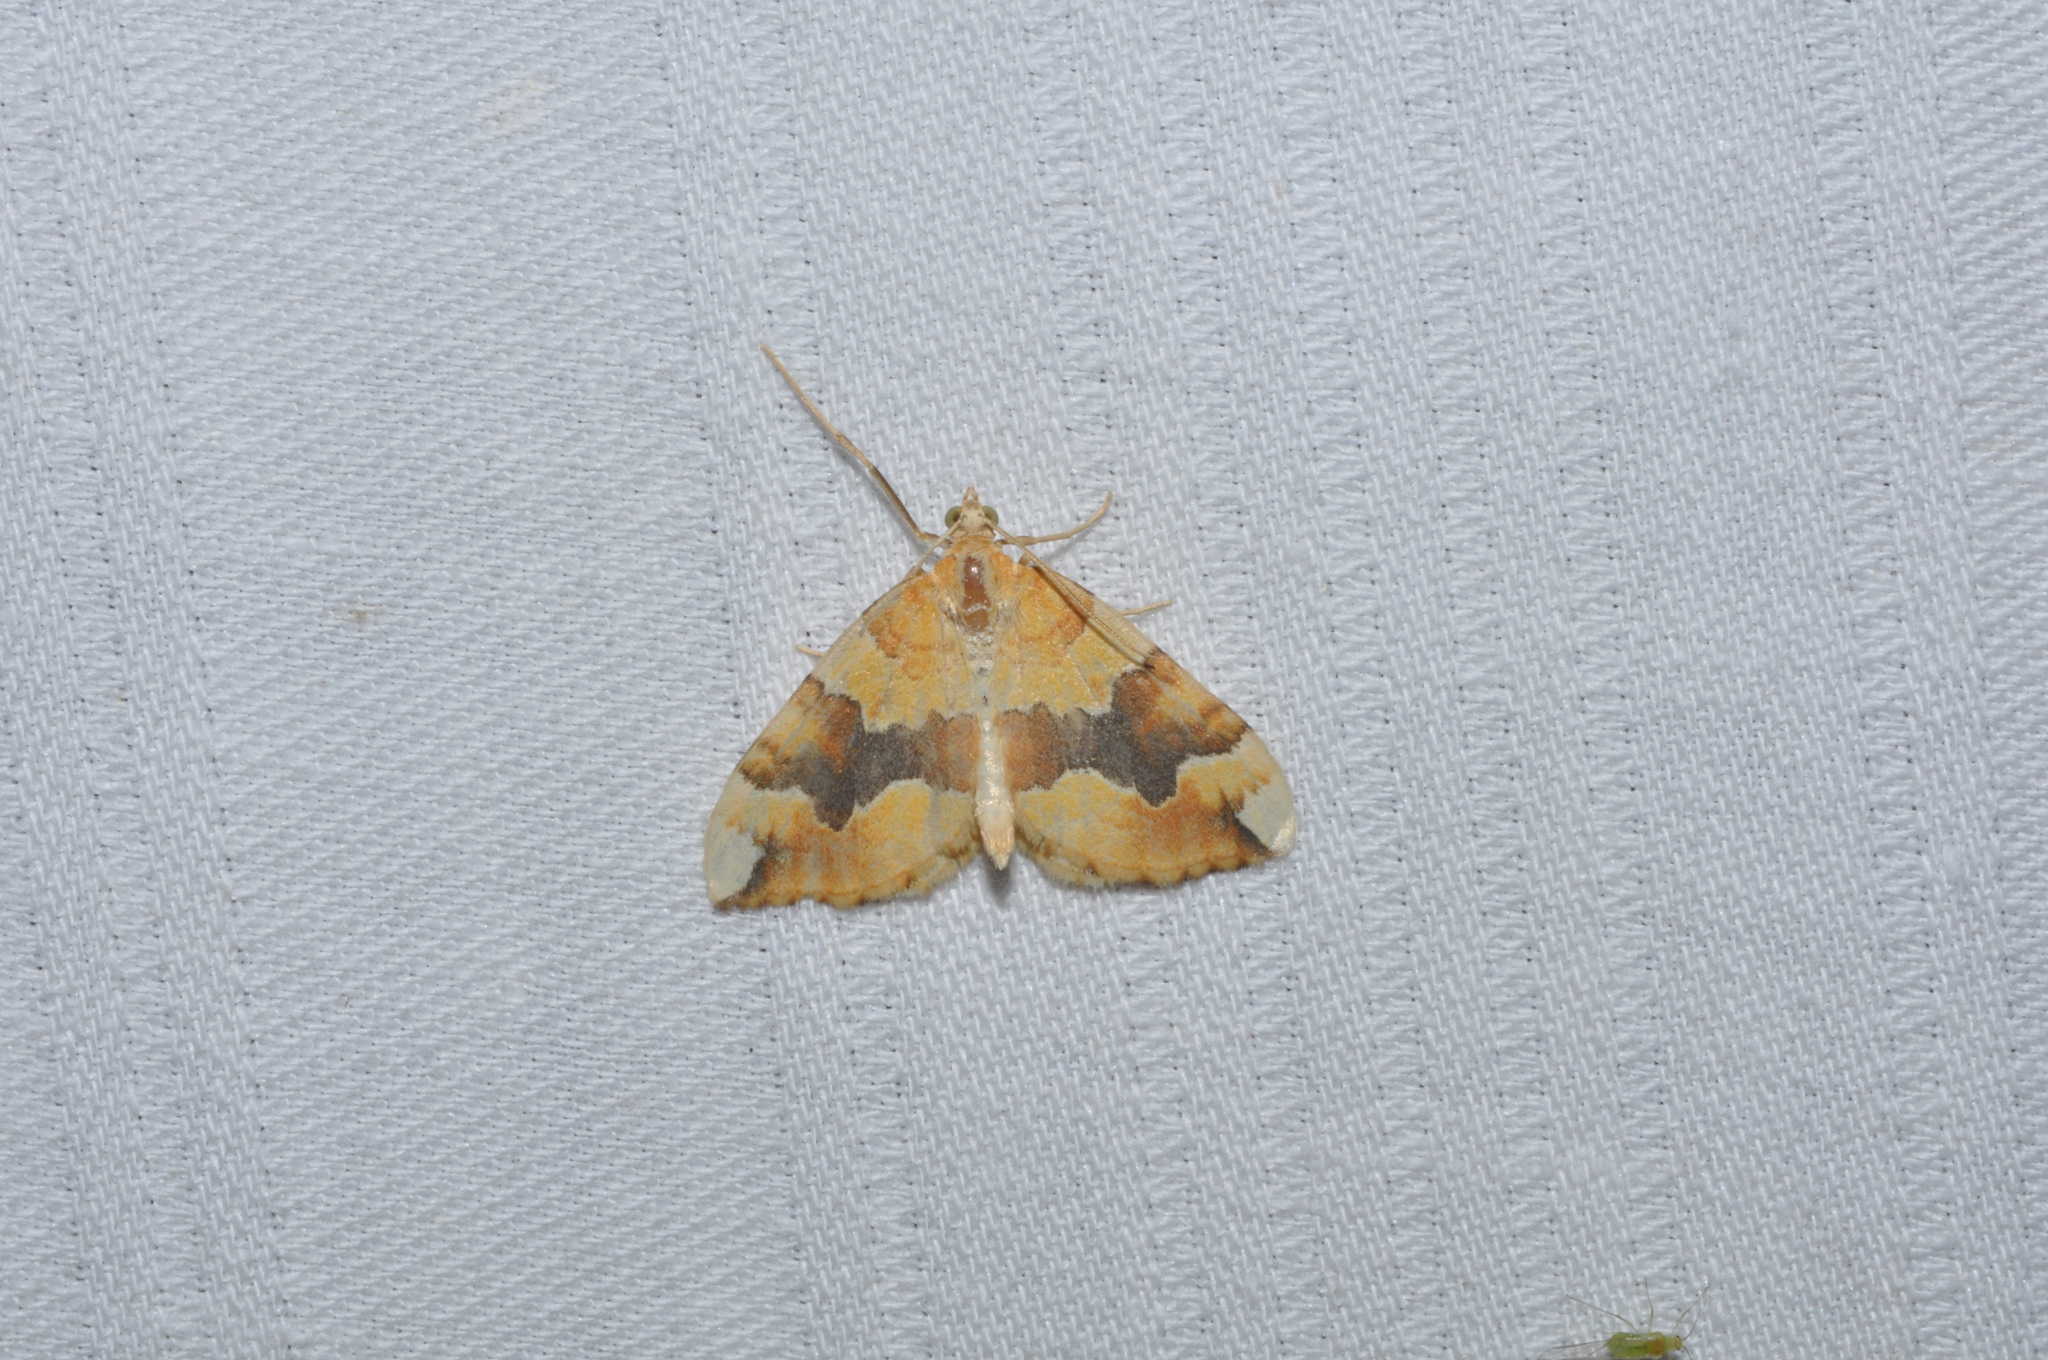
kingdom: Animalia
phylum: Arthropoda
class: Insecta
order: Lepidoptera
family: Geometridae
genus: Cidaria
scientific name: Cidaria fulvata
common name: Barred yellow
